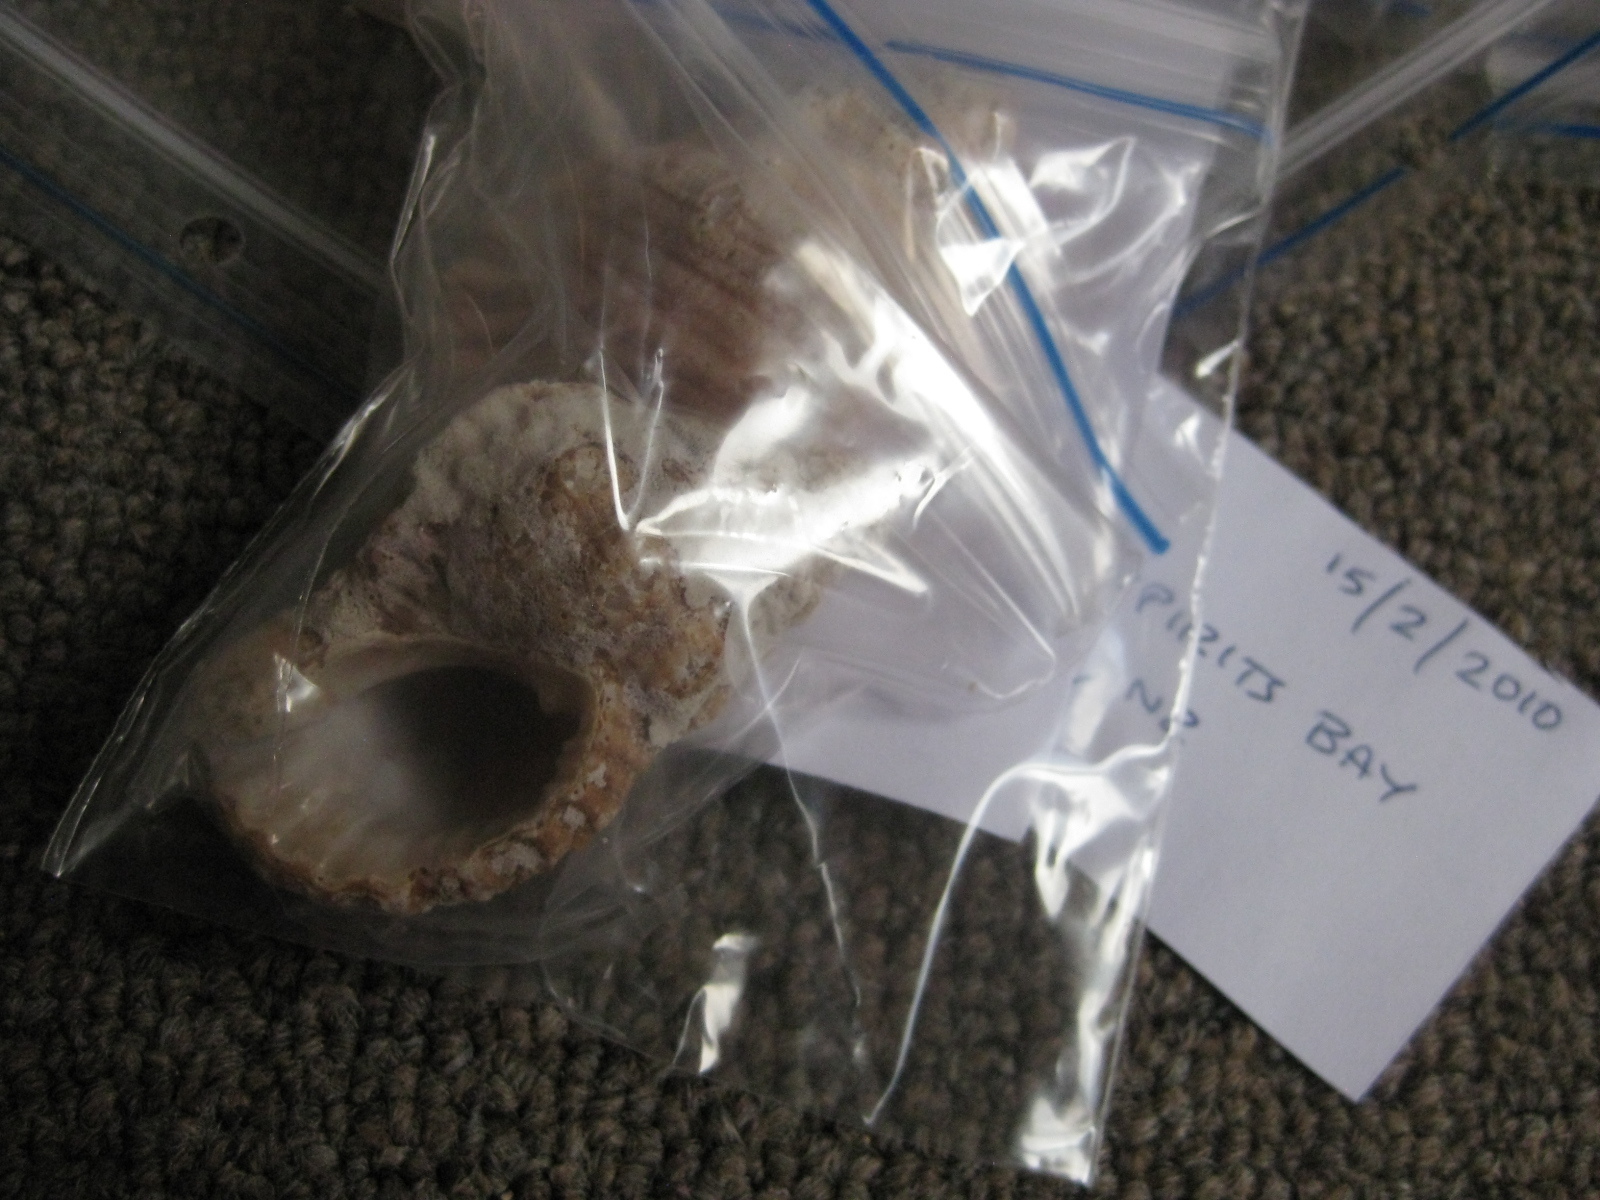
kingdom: Animalia
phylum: Mollusca
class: Gastropoda
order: Littorinimorpha
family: Cymatiidae
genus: Cabestana
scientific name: Cabestana spengleri
